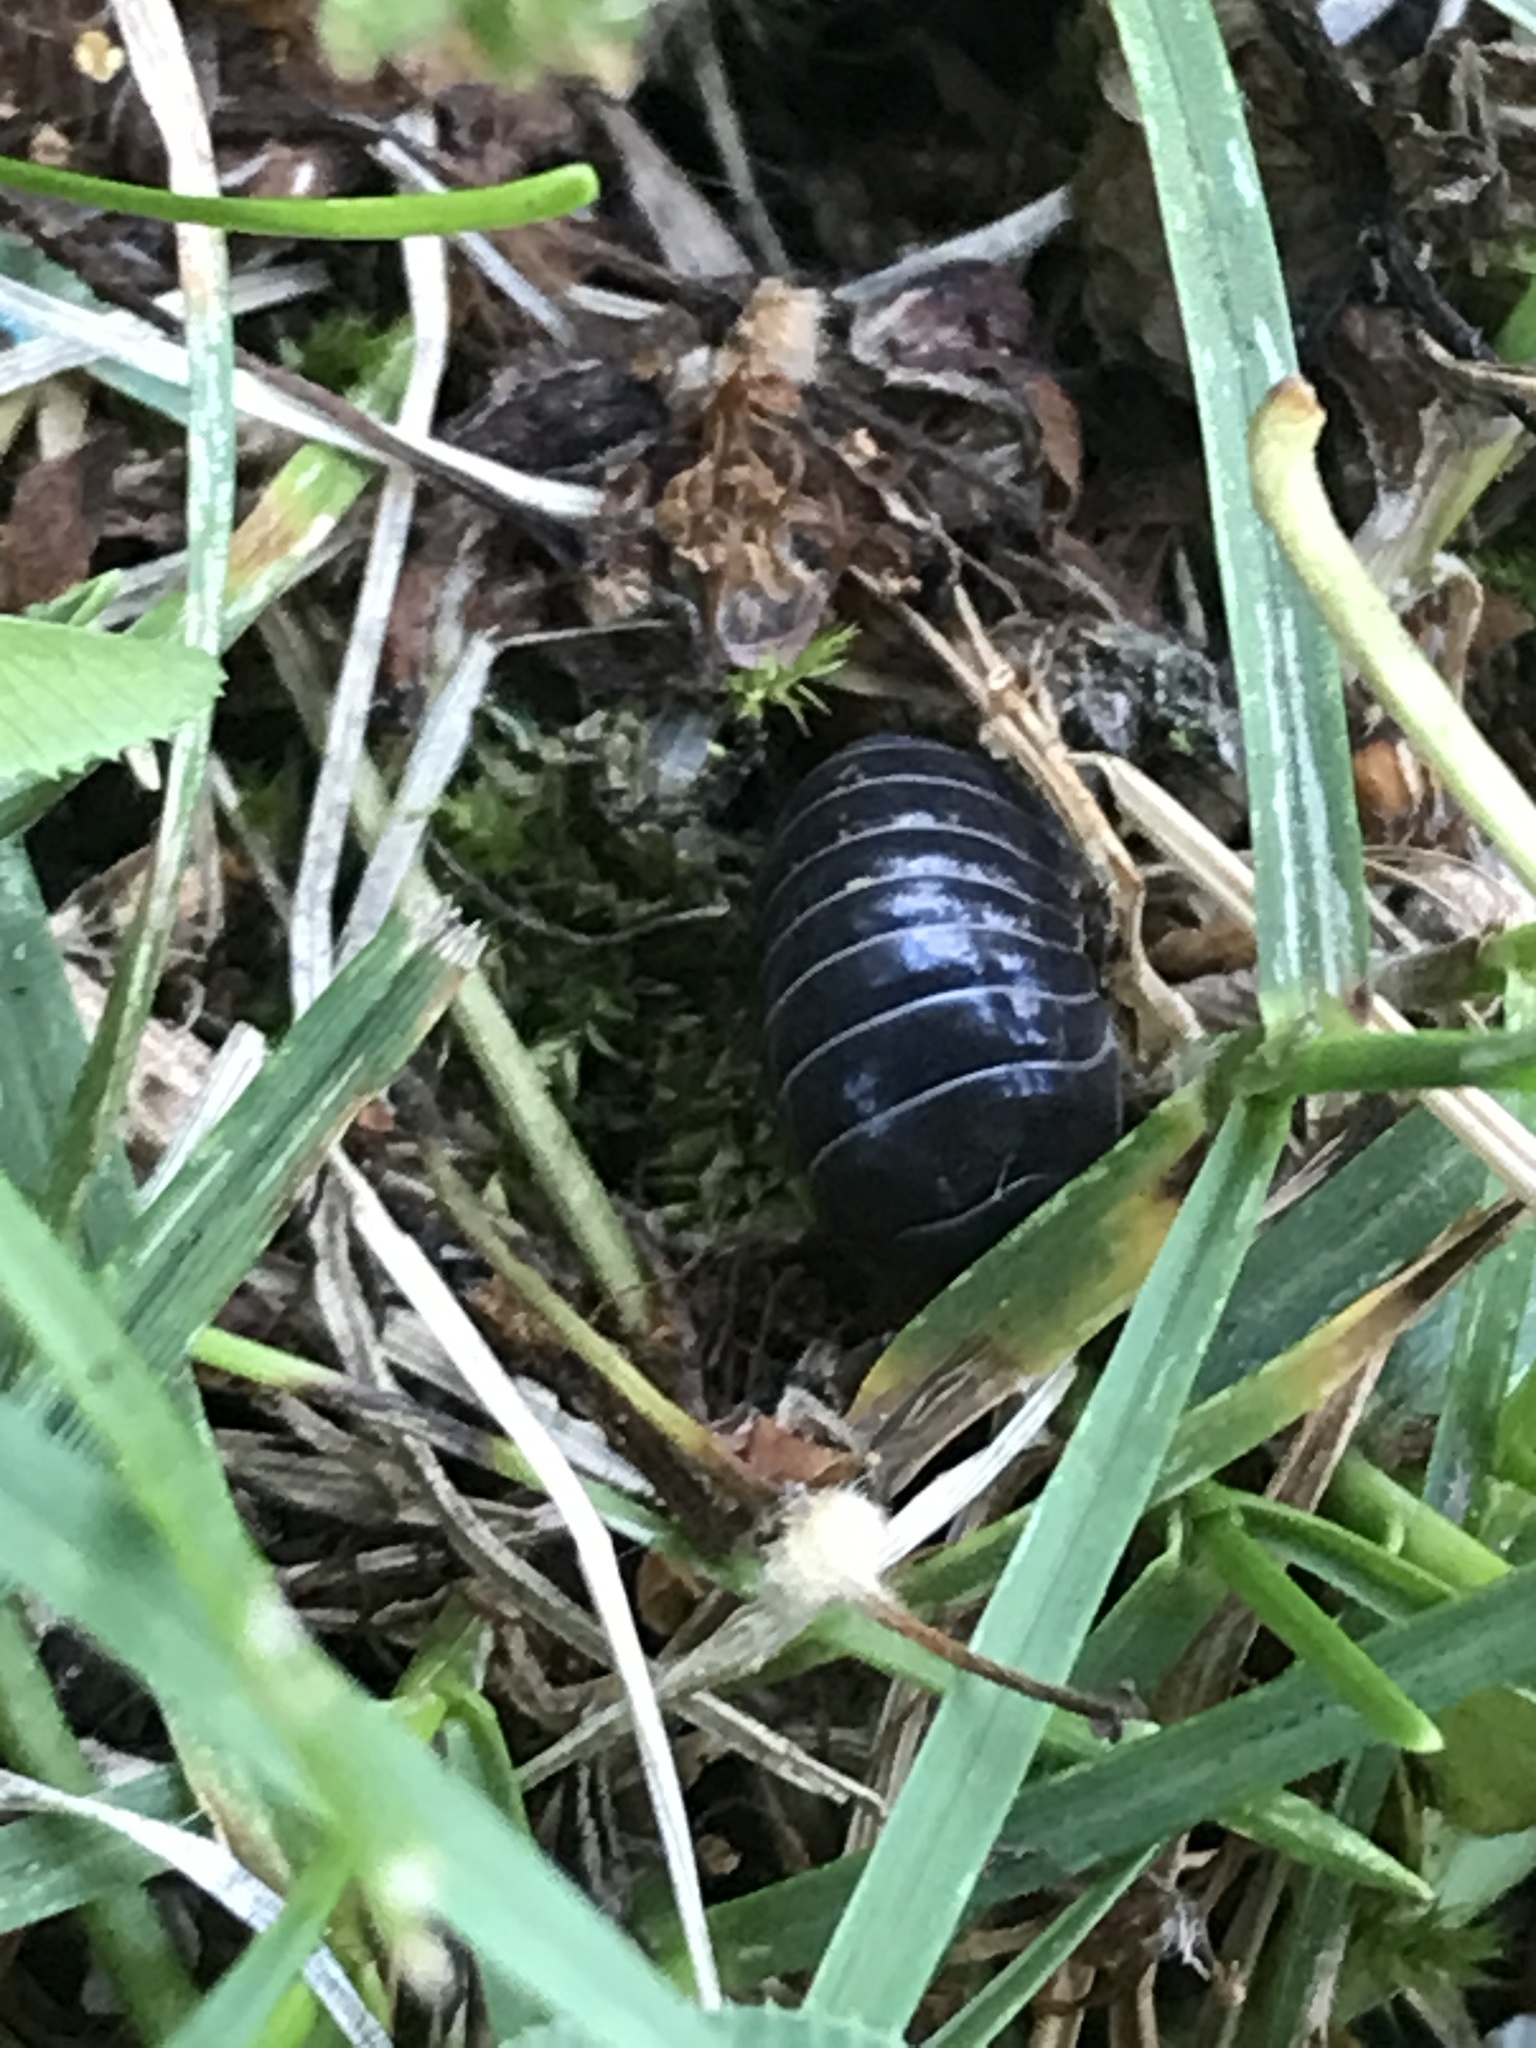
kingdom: Animalia
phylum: Arthropoda
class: Malacostraca
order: Isopoda
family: Armadillidiidae
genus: Armadillidium
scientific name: Armadillidium vulgare
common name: Common pill woodlouse
